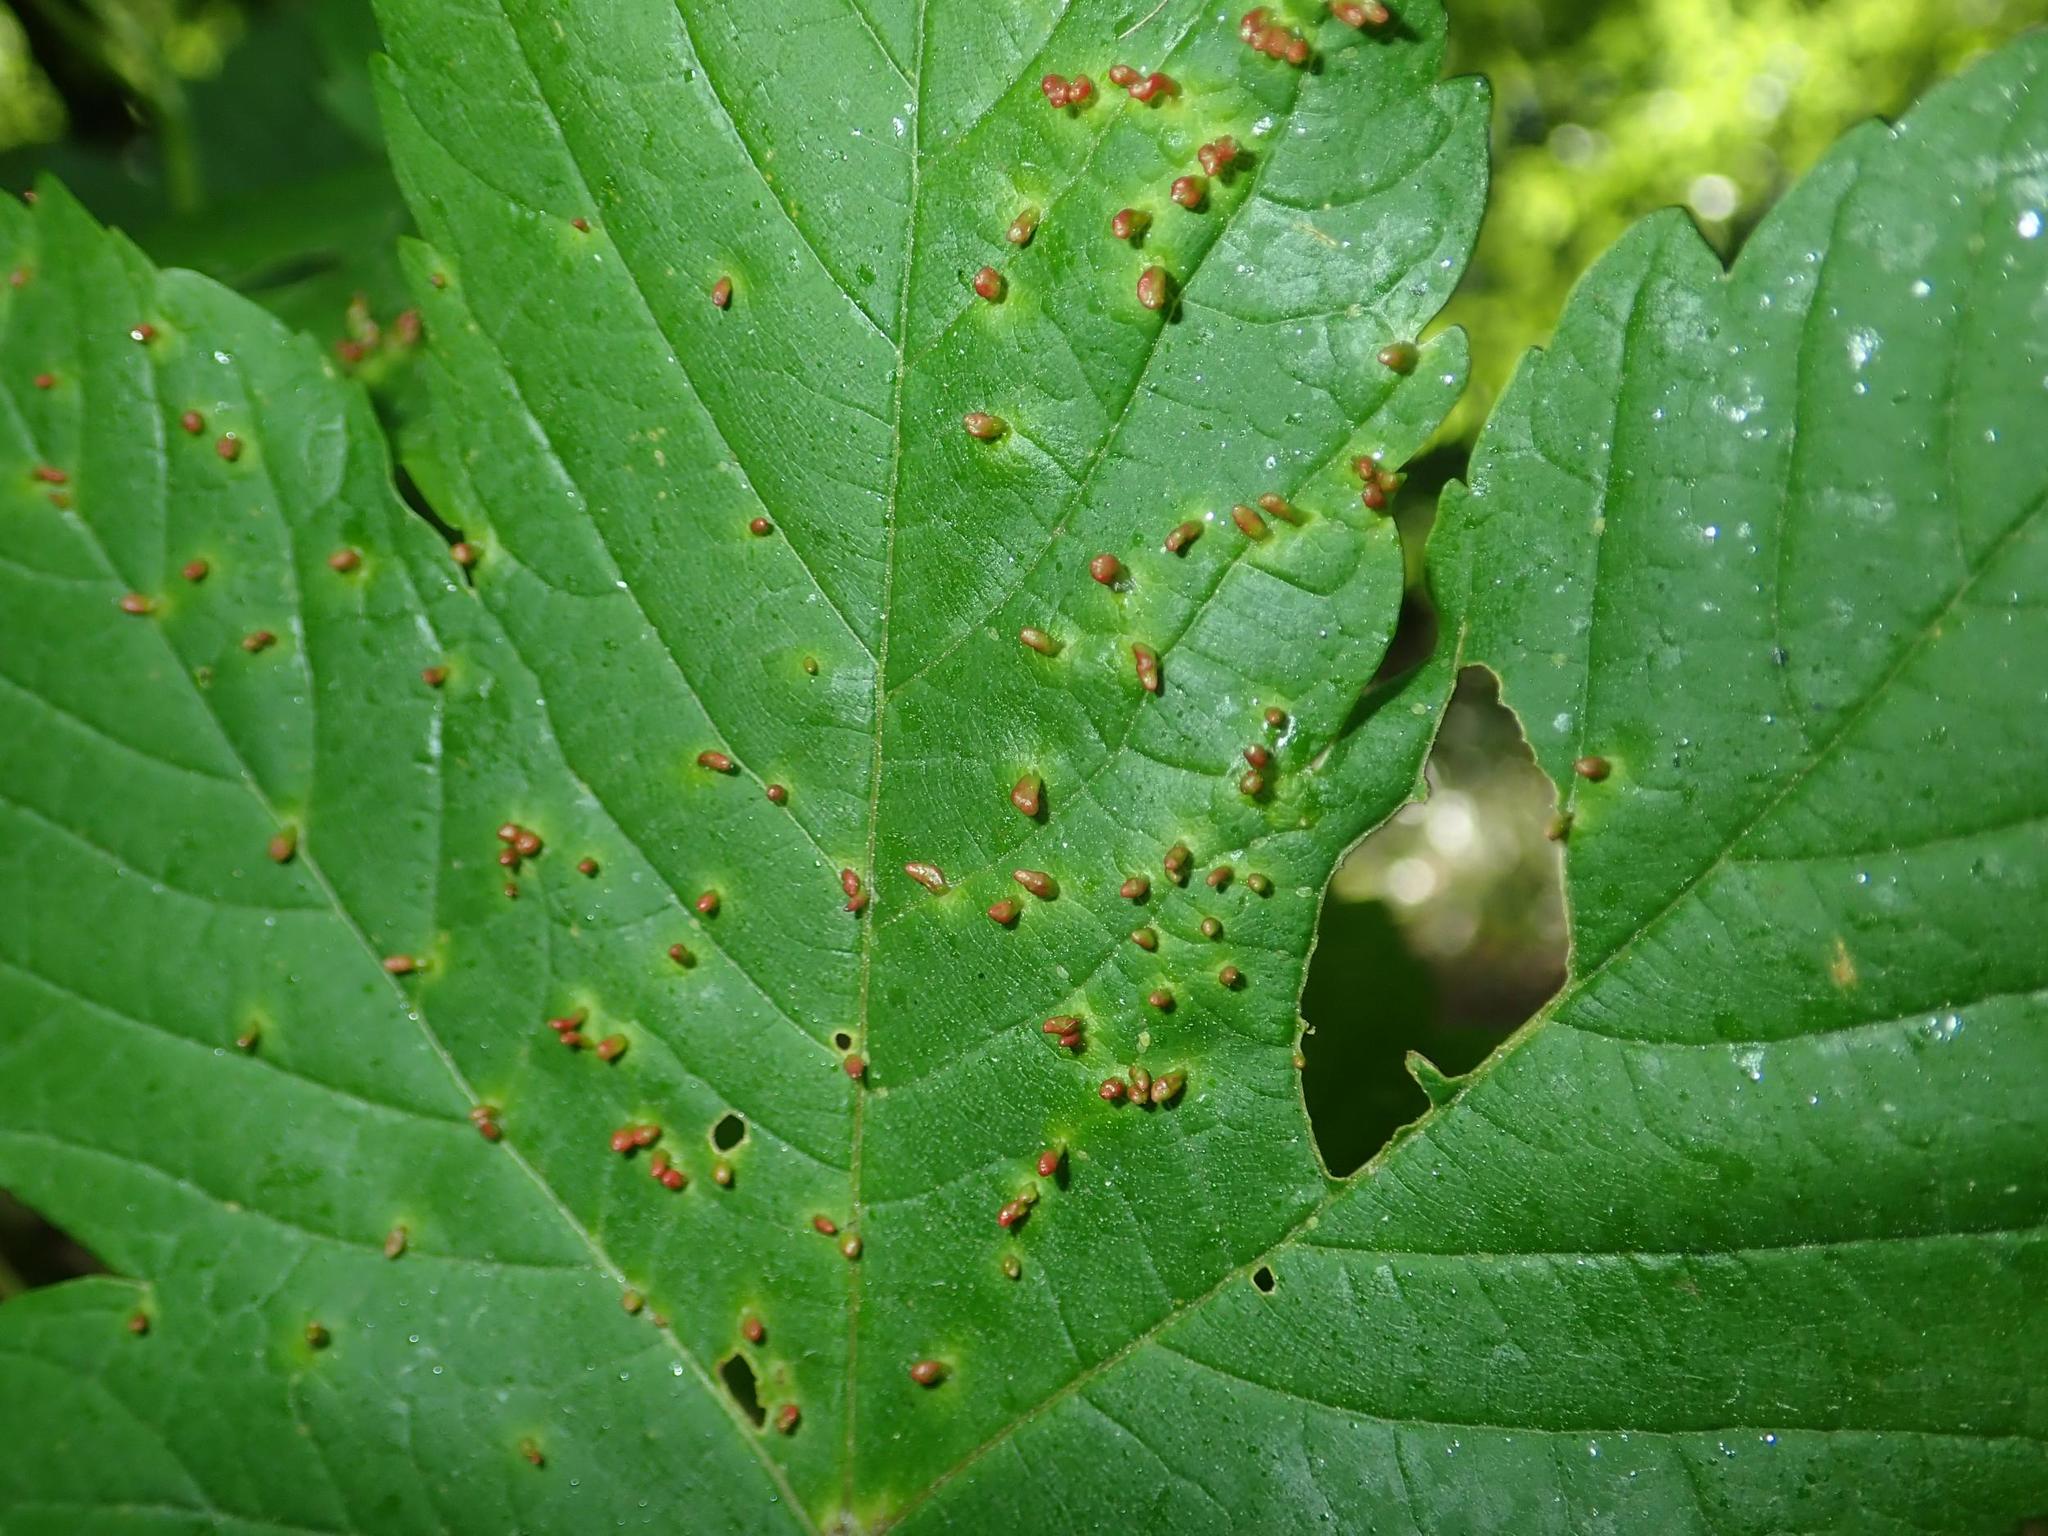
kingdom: Animalia
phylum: Arthropoda
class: Arachnida
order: Trombidiformes
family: Eriophyidae
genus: Aceria
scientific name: Aceria cephaloneus
